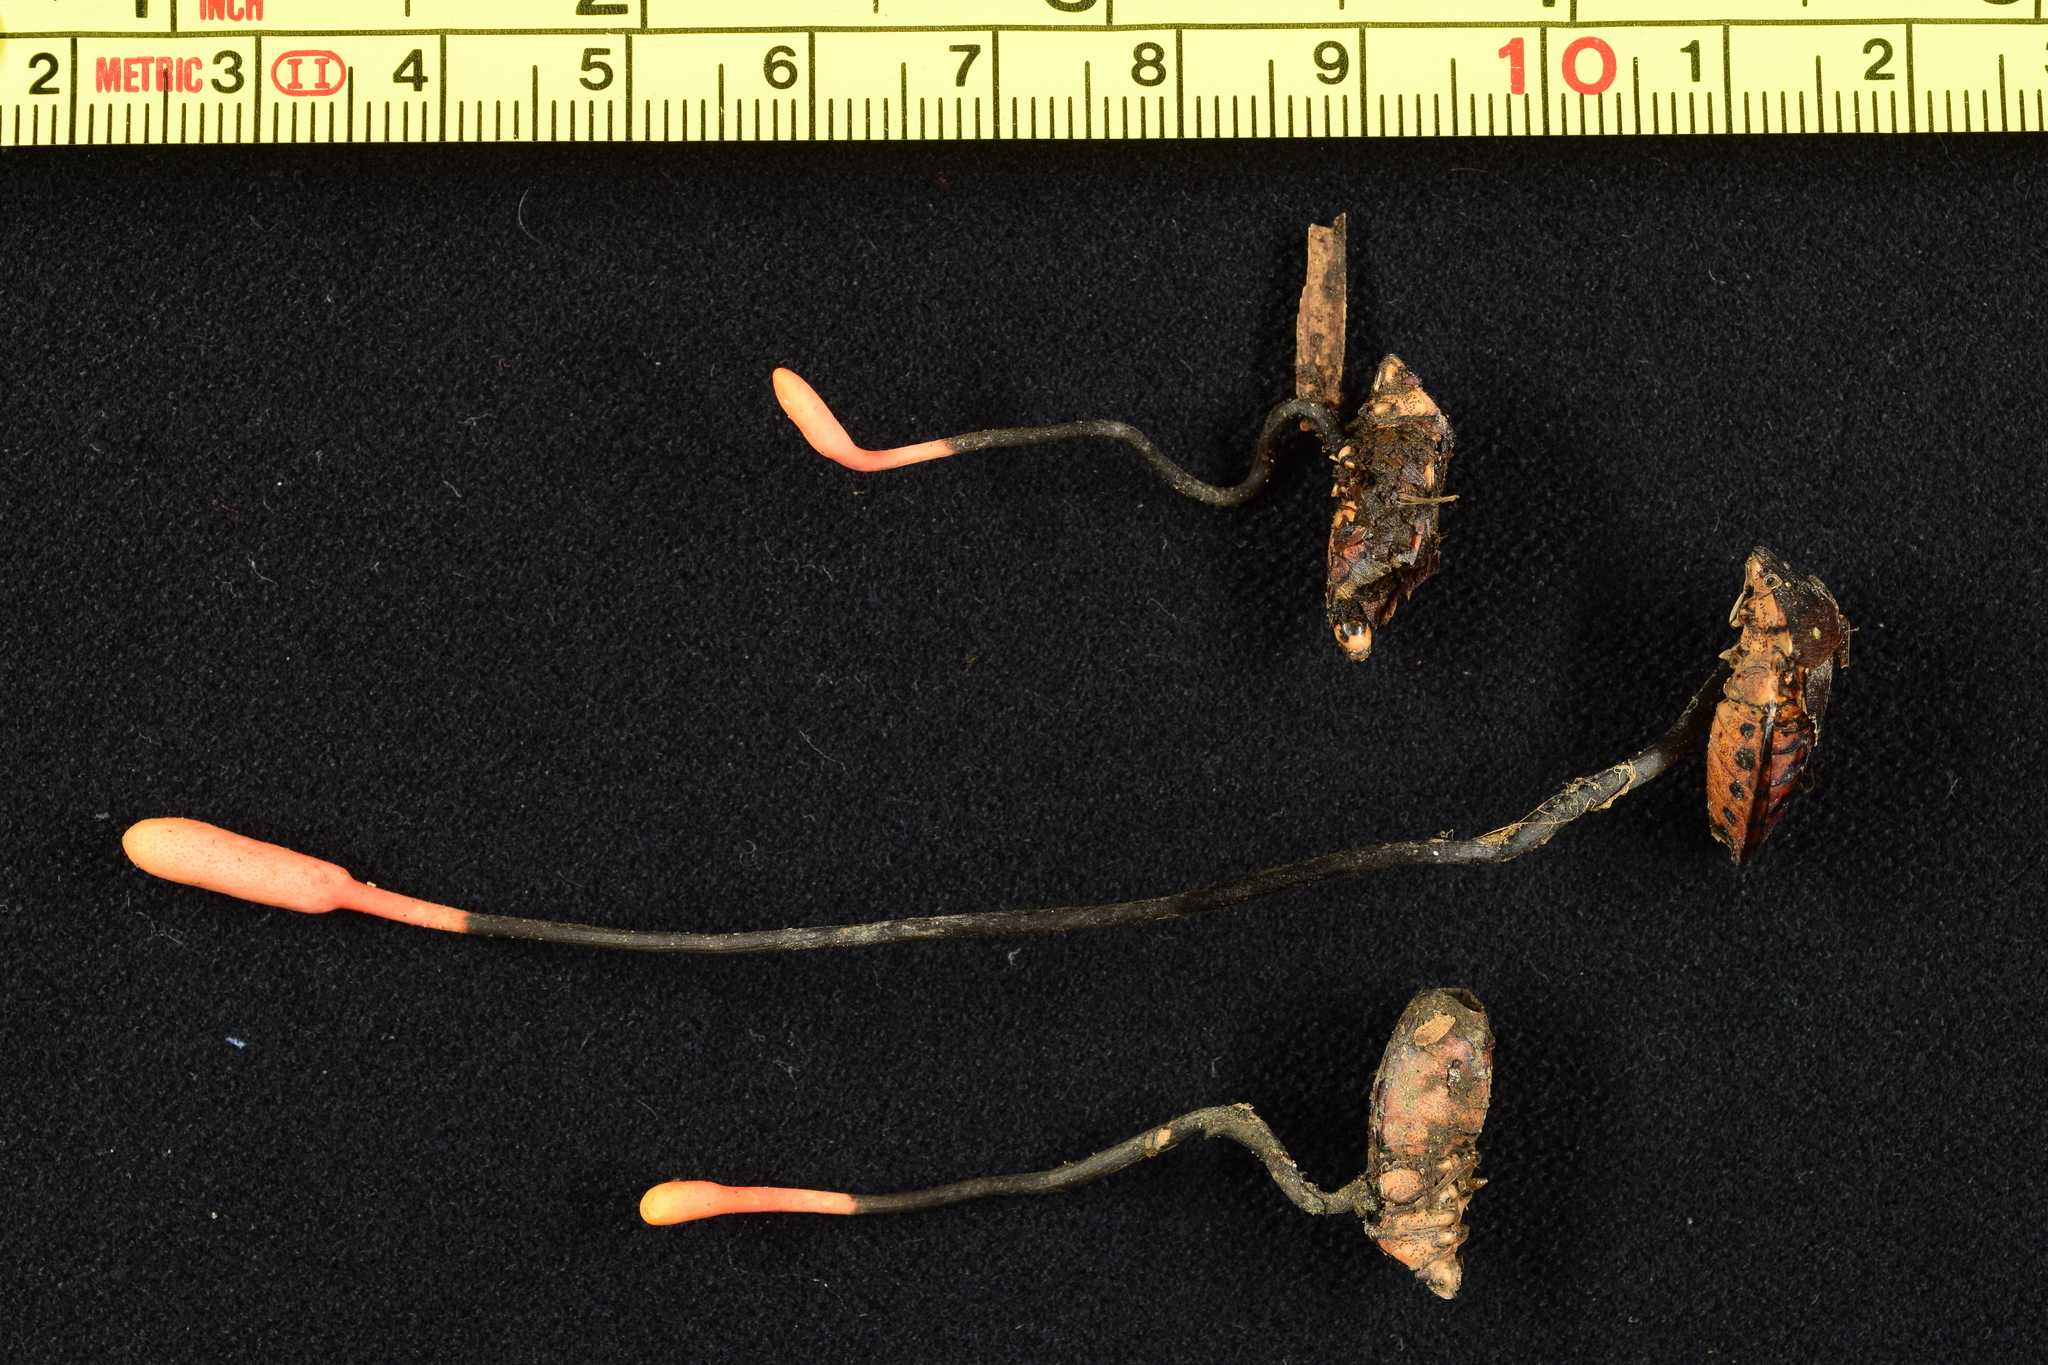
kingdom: Fungi
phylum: Ascomycota
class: Sordariomycetes
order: Hypocreales
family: Ophiocordycipitaceae
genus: Ophiocordyceps
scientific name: Ophiocordyceps nutans
